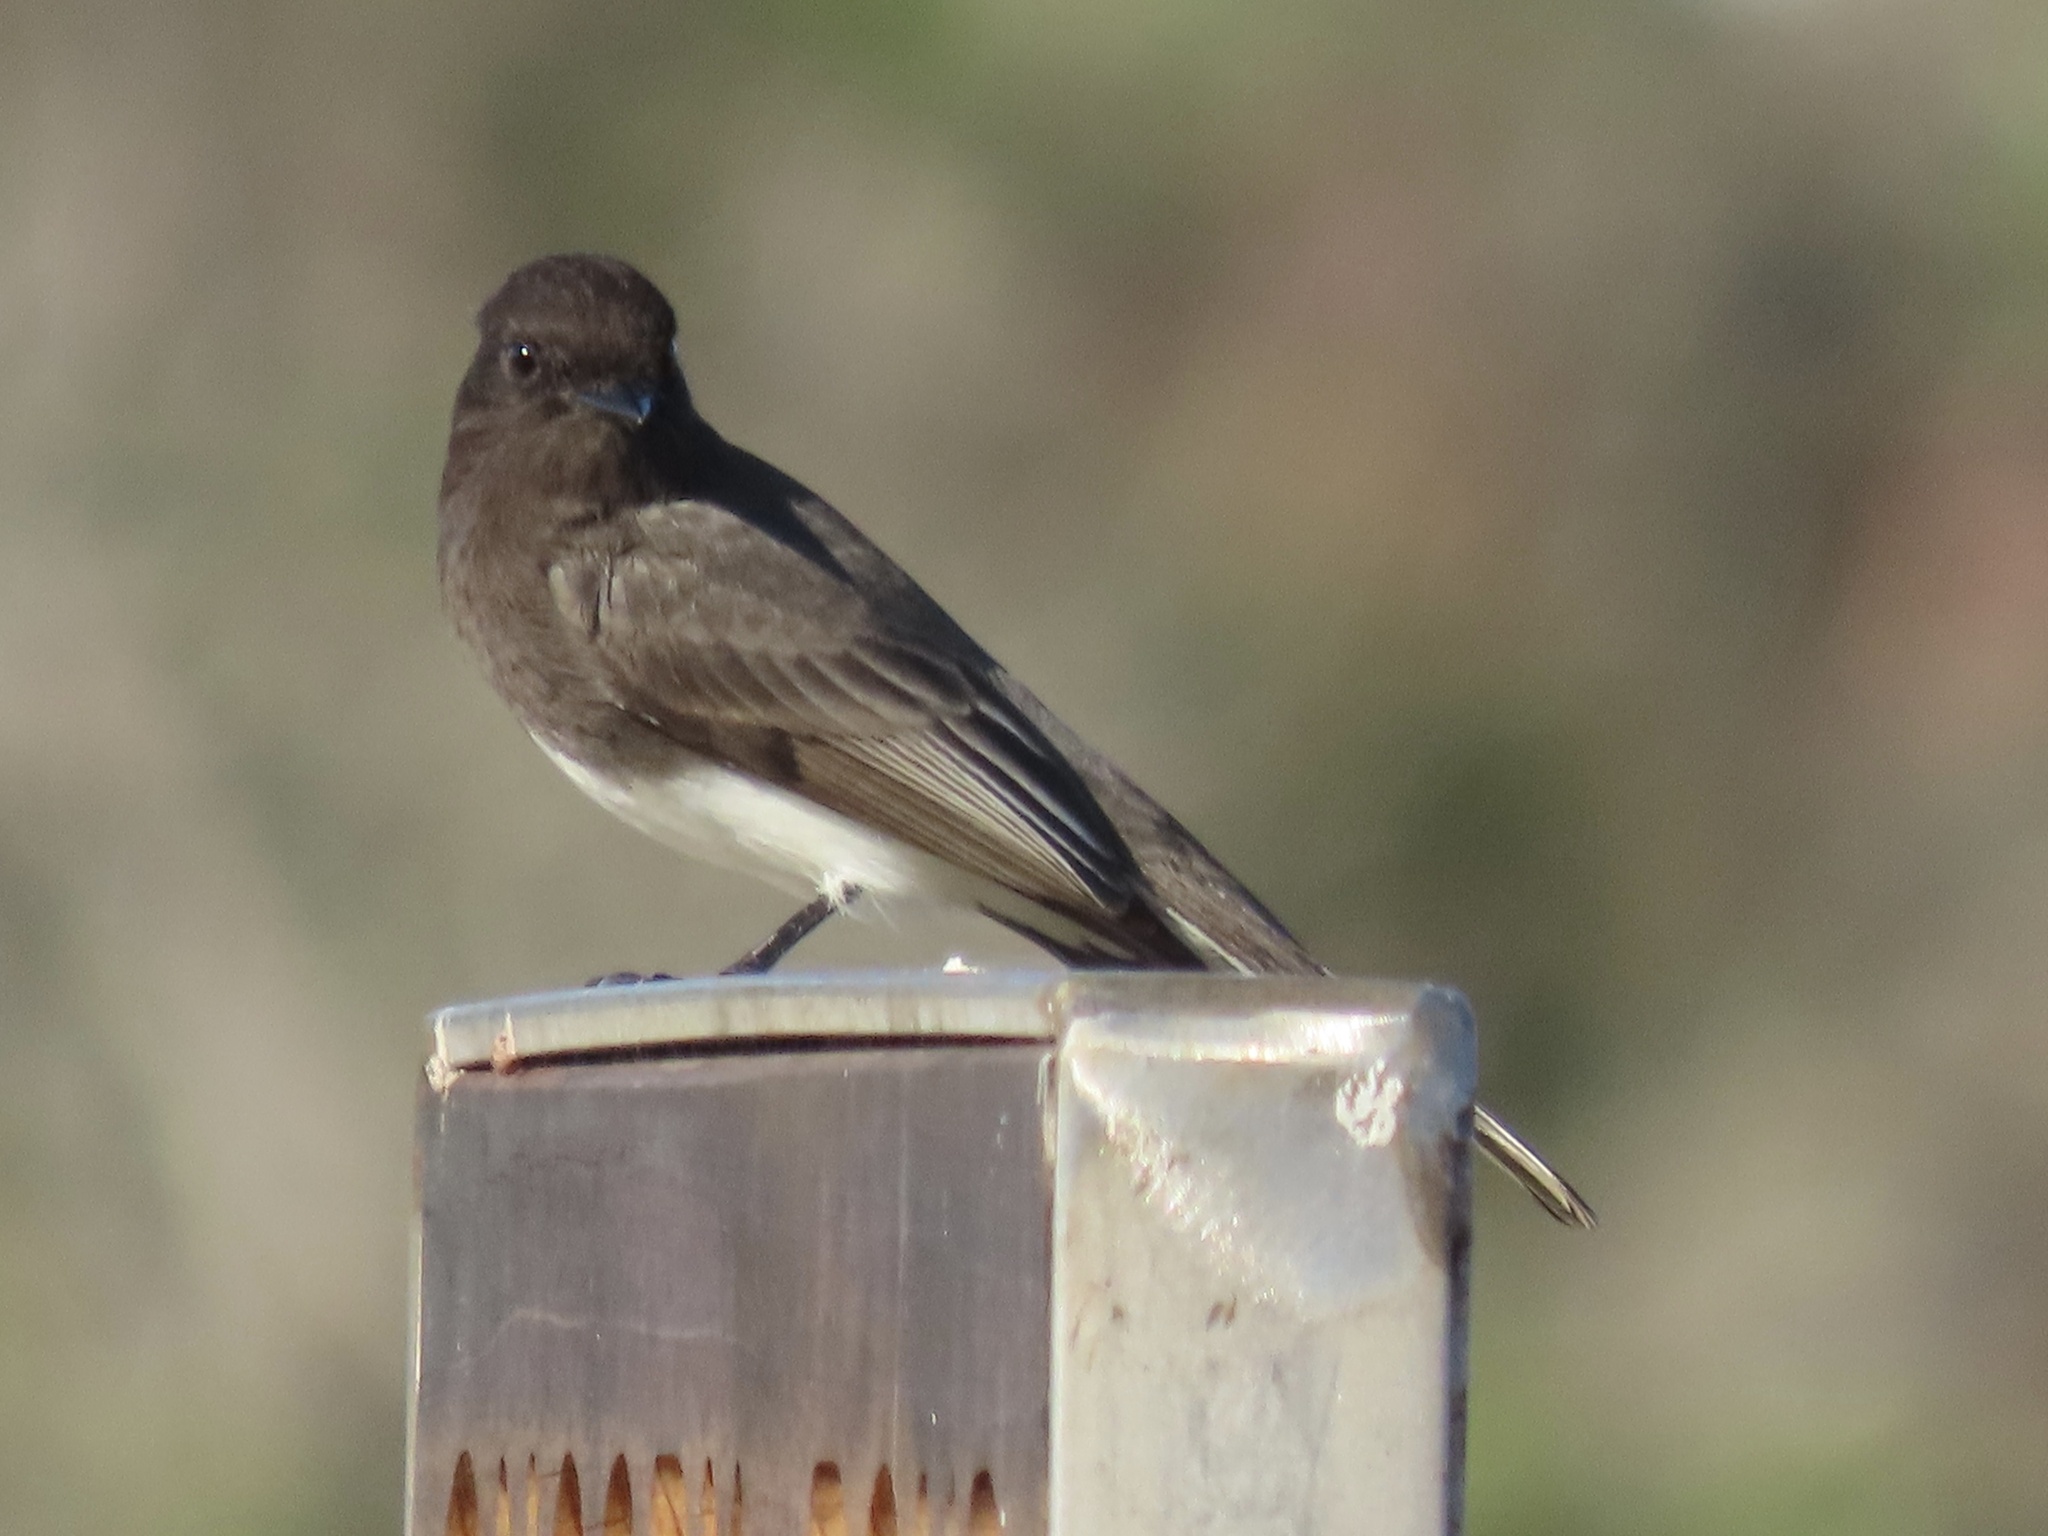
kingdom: Animalia
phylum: Chordata
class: Aves
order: Passeriformes
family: Tyrannidae
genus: Sayornis
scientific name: Sayornis nigricans
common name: Black phoebe
